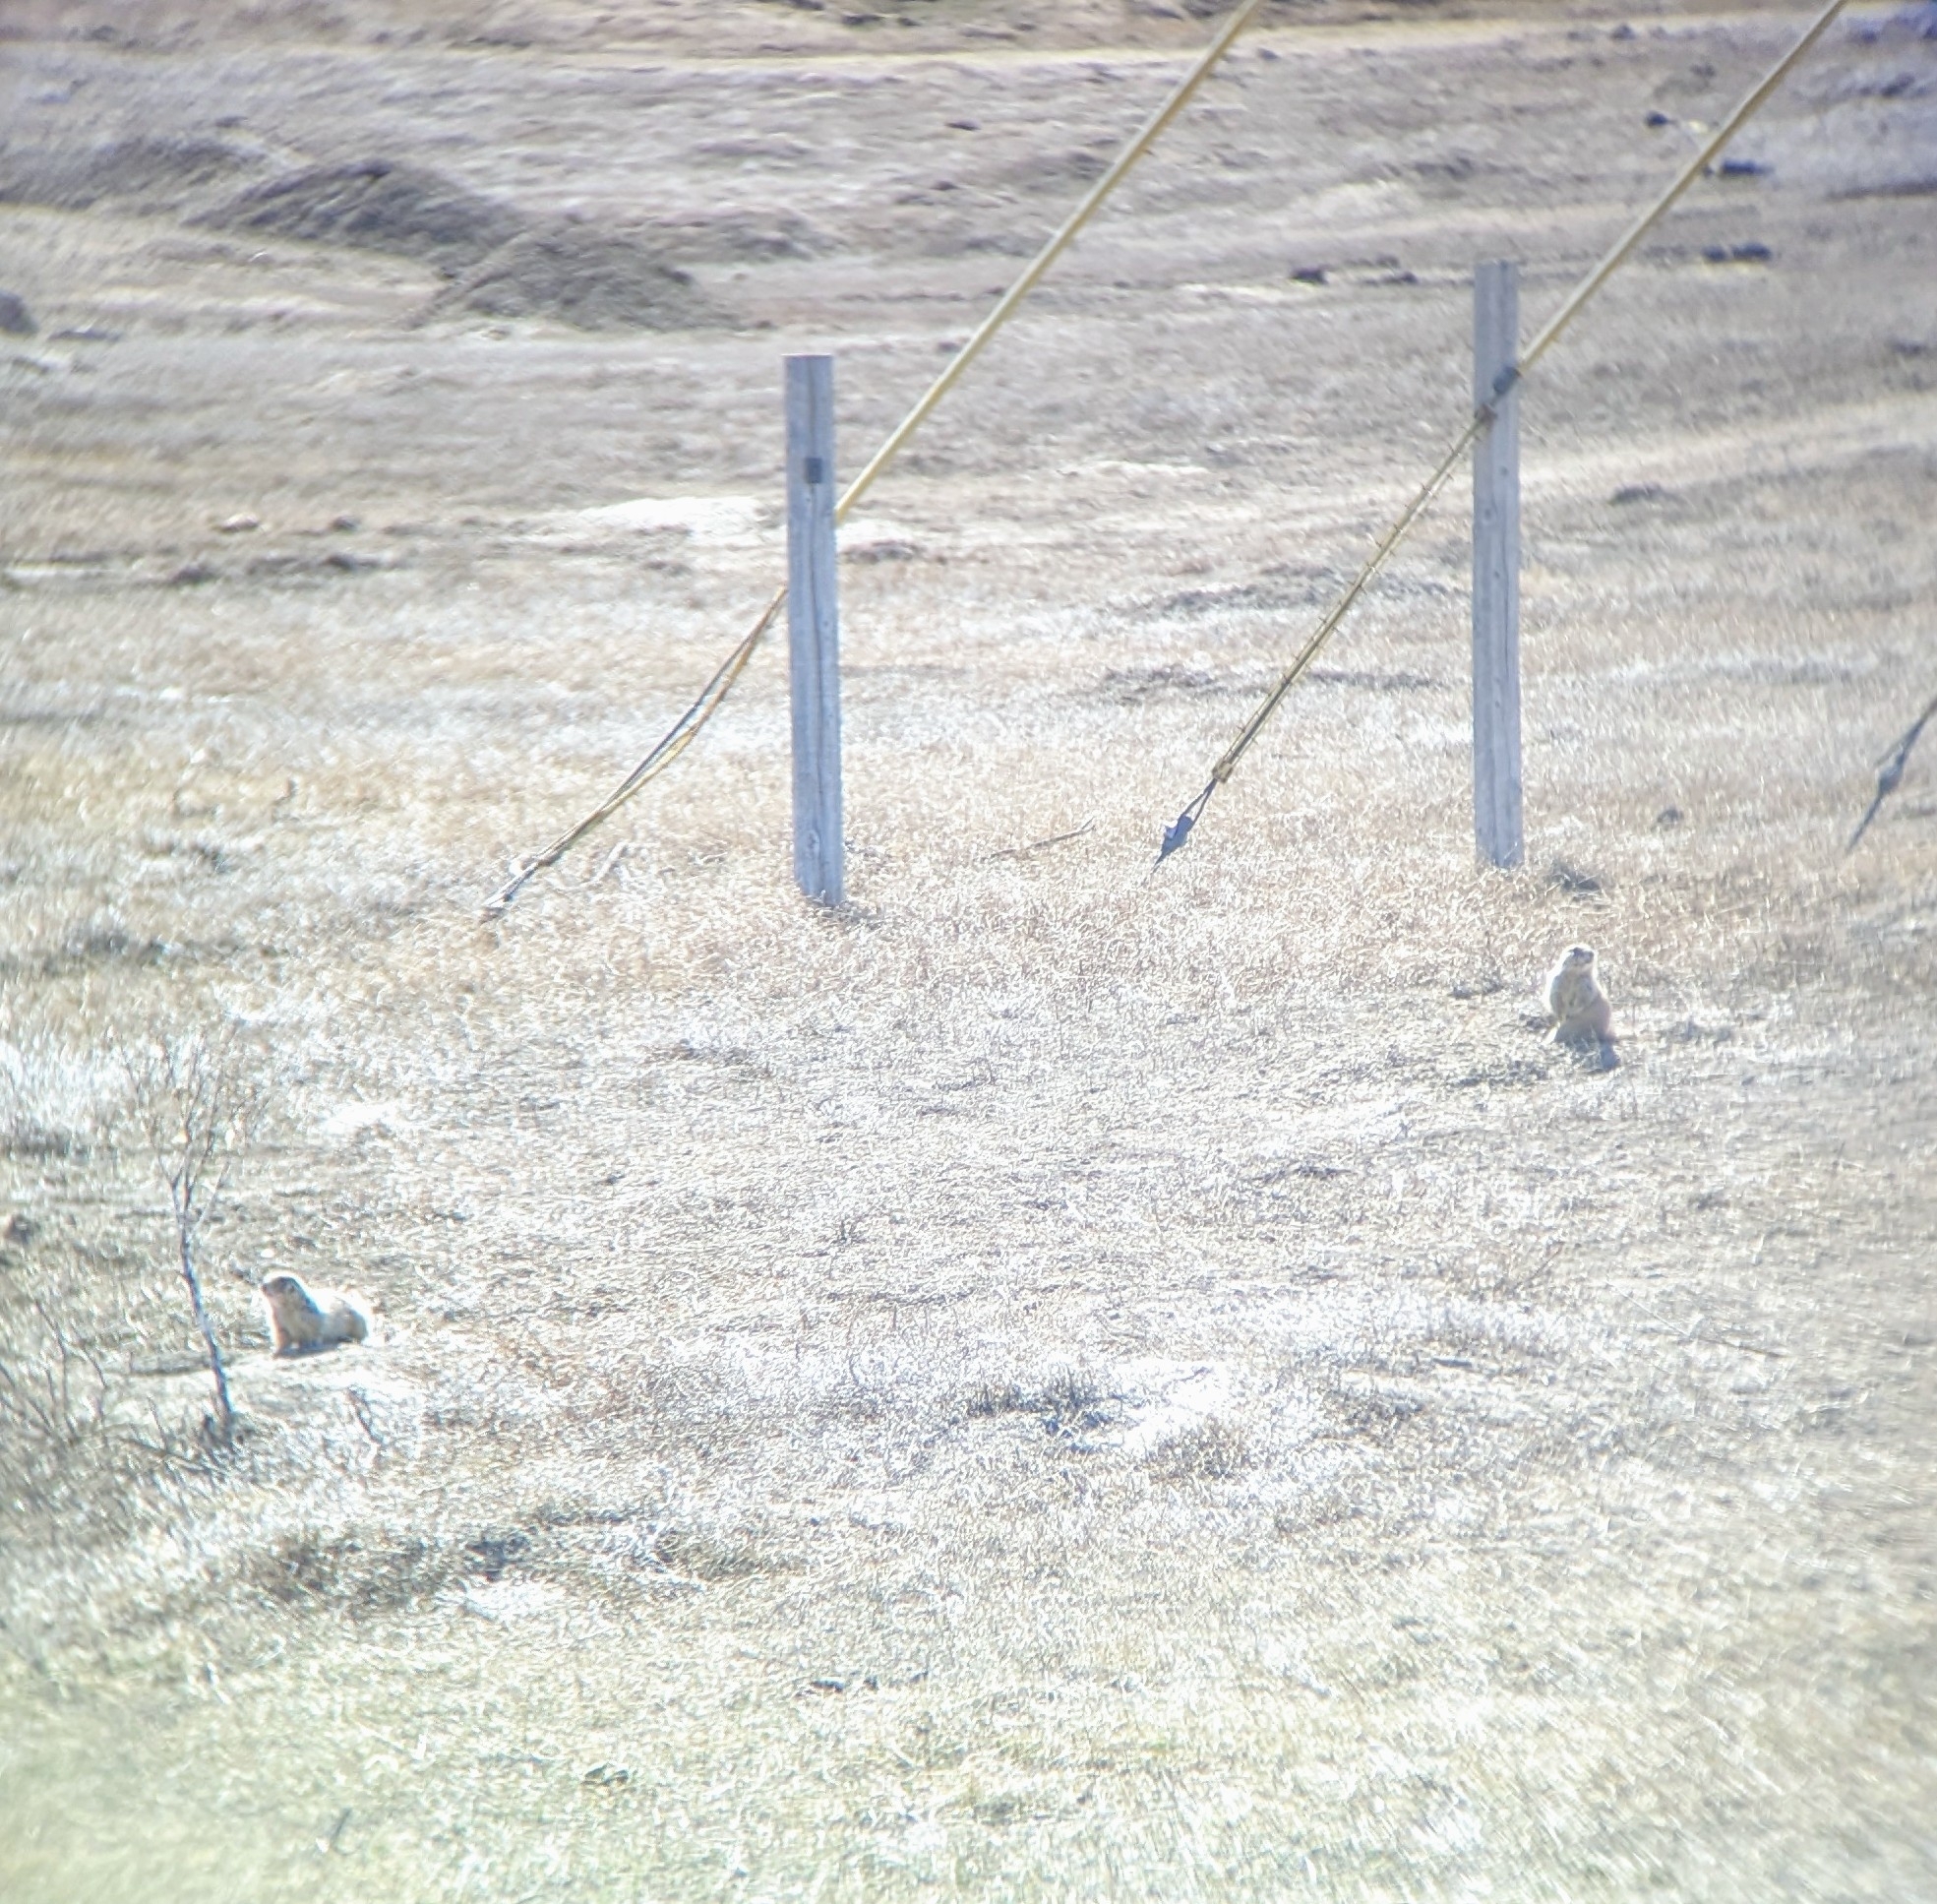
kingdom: Animalia
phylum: Chordata
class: Mammalia
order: Rodentia
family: Sciuridae
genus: Cynomys
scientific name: Cynomys ludovicianus
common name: Black-tailed prairie dog
